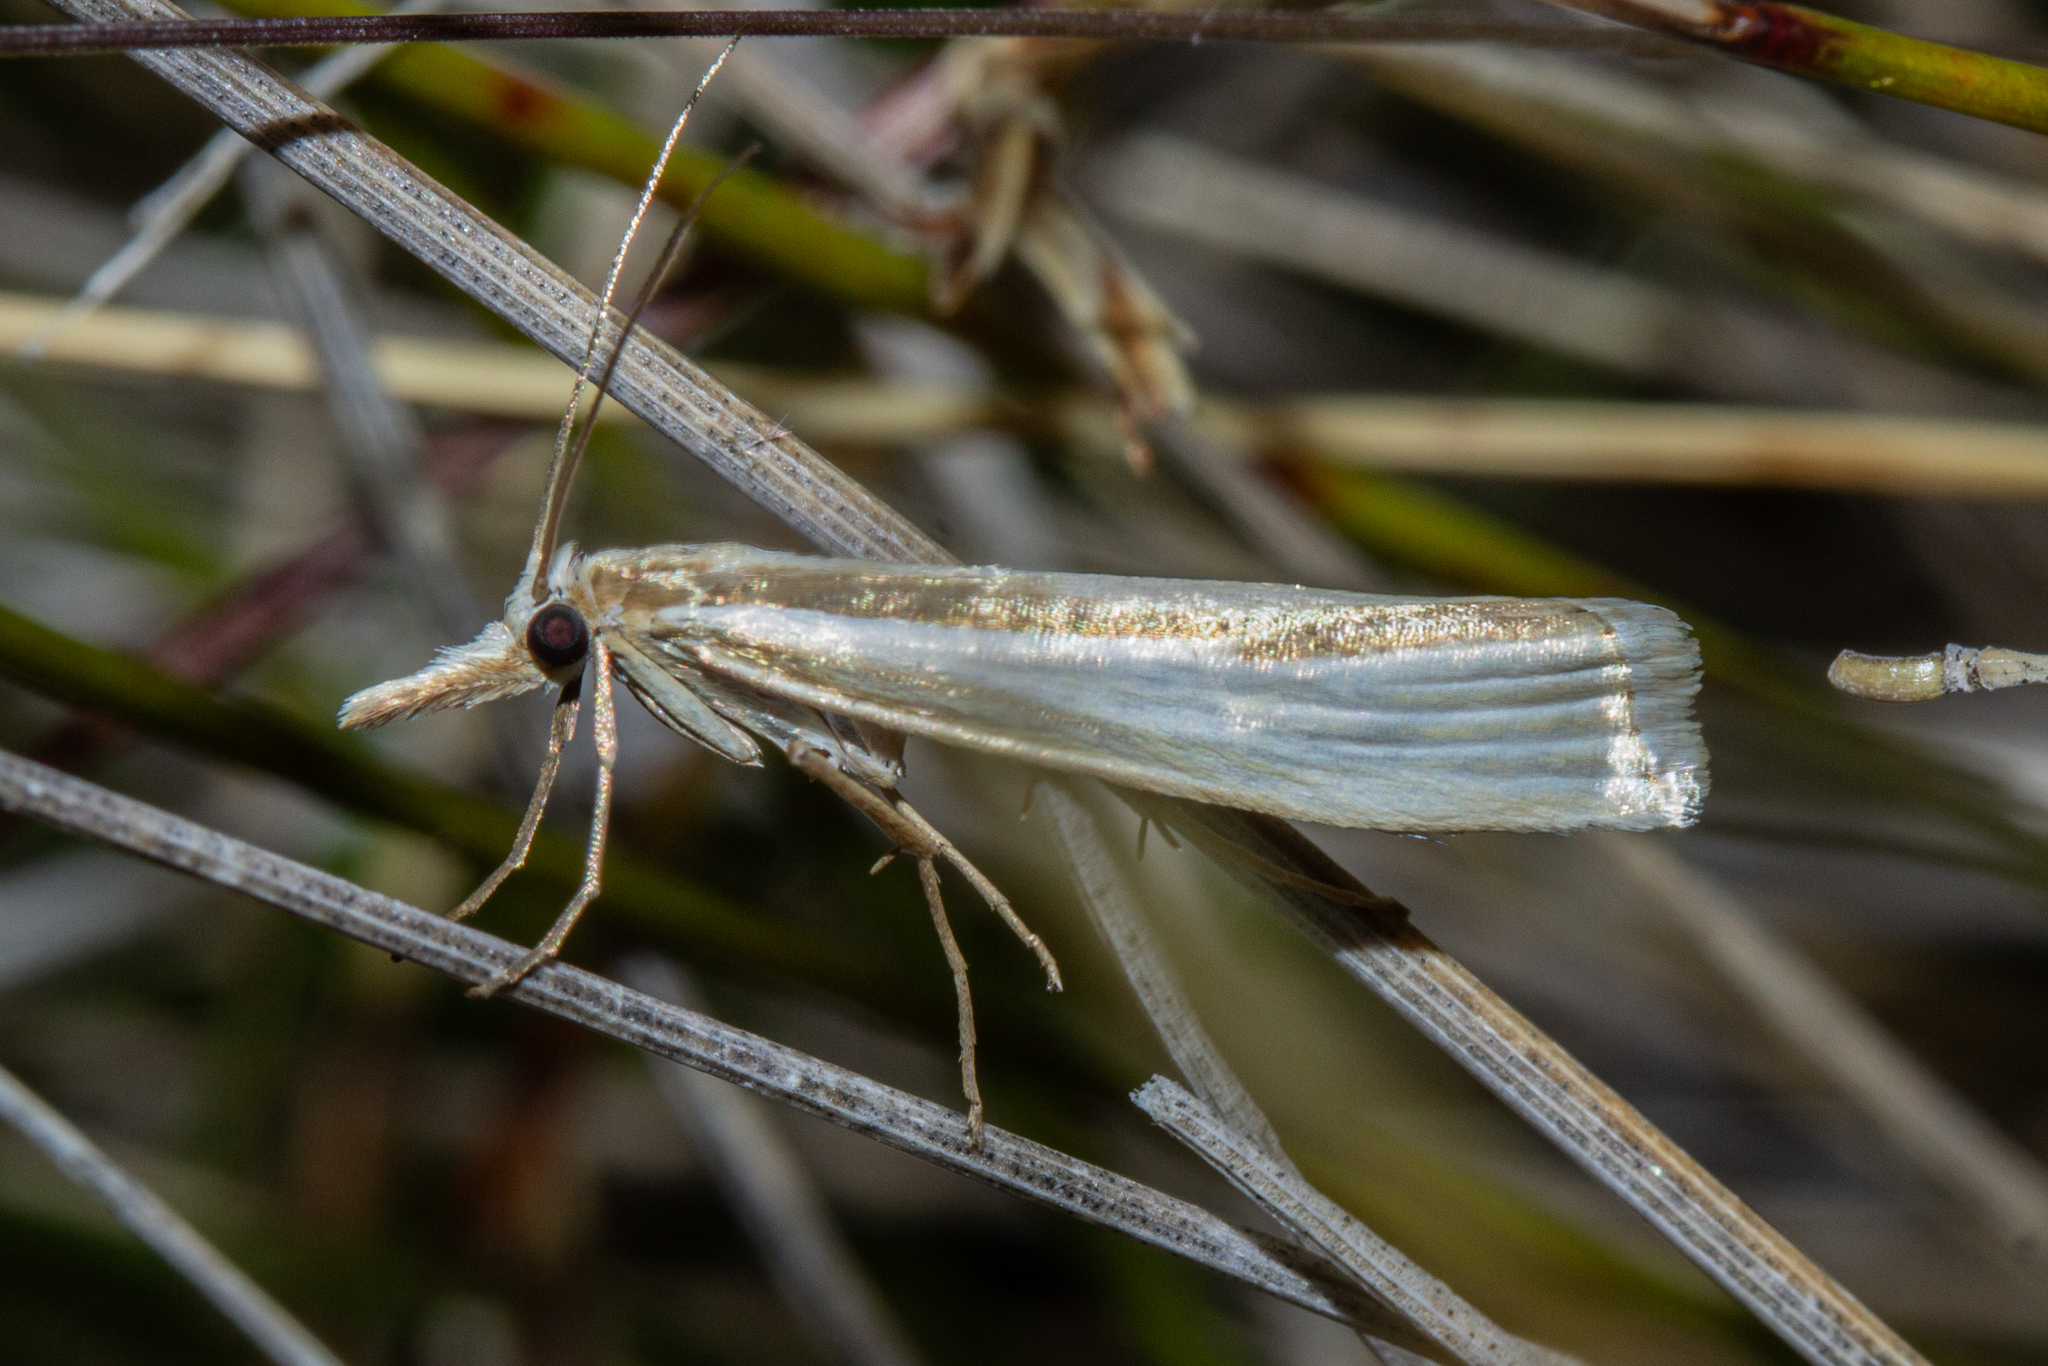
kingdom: Animalia
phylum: Arthropoda
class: Insecta
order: Lepidoptera
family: Crambidae
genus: Orocrambus
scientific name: Orocrambus ramosellus
